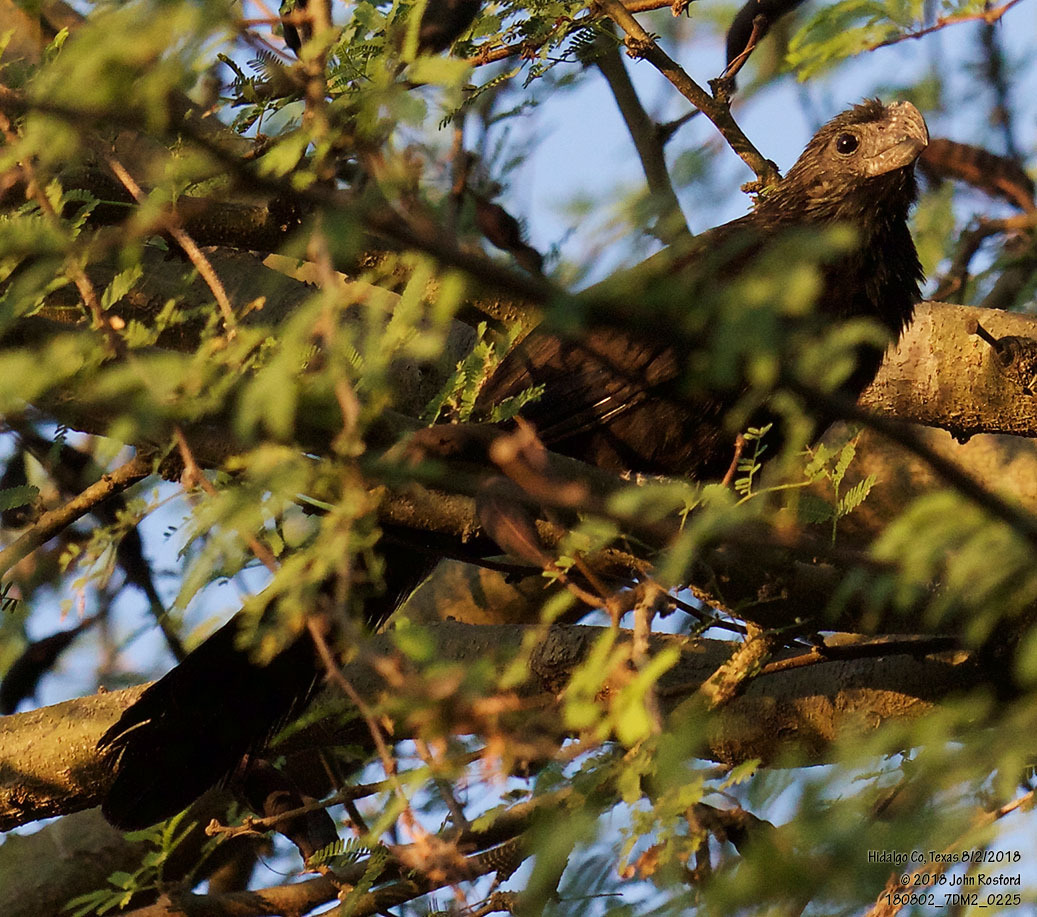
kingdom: Animalia
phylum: Chordata
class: Aves
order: Cuculiformes
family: Cuculidae
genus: Crotophaga
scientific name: Crotophaga sulcirostris
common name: Groove-billed ani
